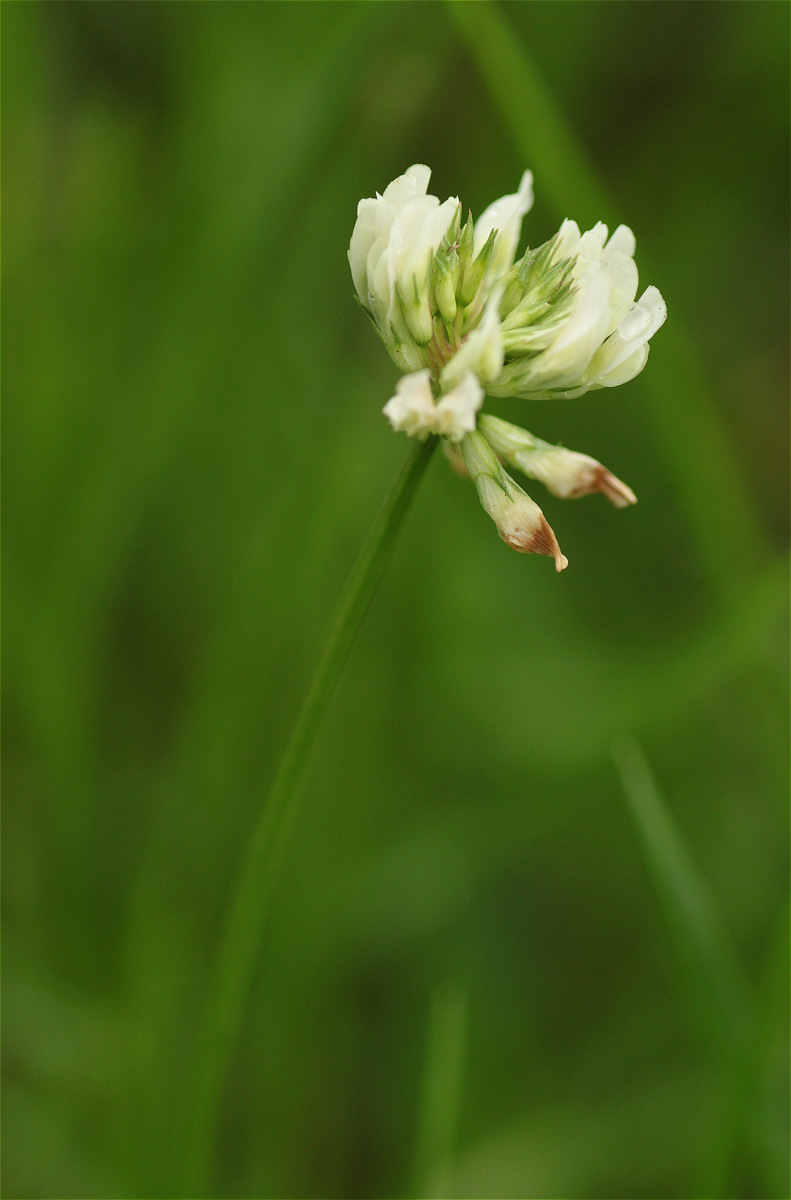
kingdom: Plantae
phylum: Tracheophyta
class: Magnoliopsida
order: Fabales
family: Fabaceae
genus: Trifolium
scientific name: Trifolium repens
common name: White clover
